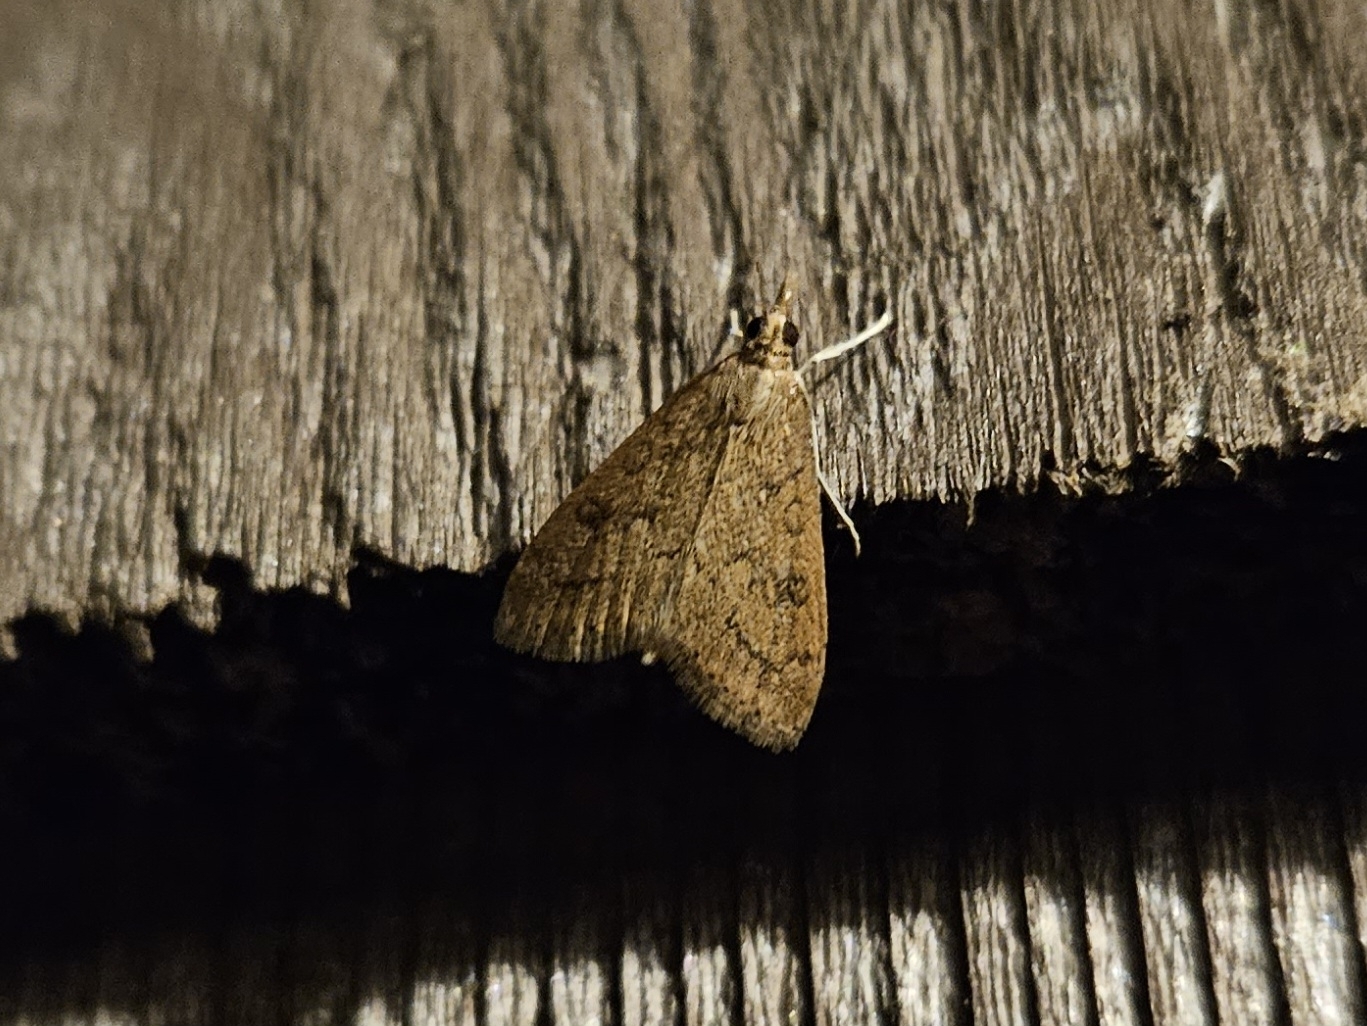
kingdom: Animalia
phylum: Arthropoda
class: Insecta
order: Lepidoptera
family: Crambidae
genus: Udea
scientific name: Udea rubigalis
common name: Celery leaftier moth
